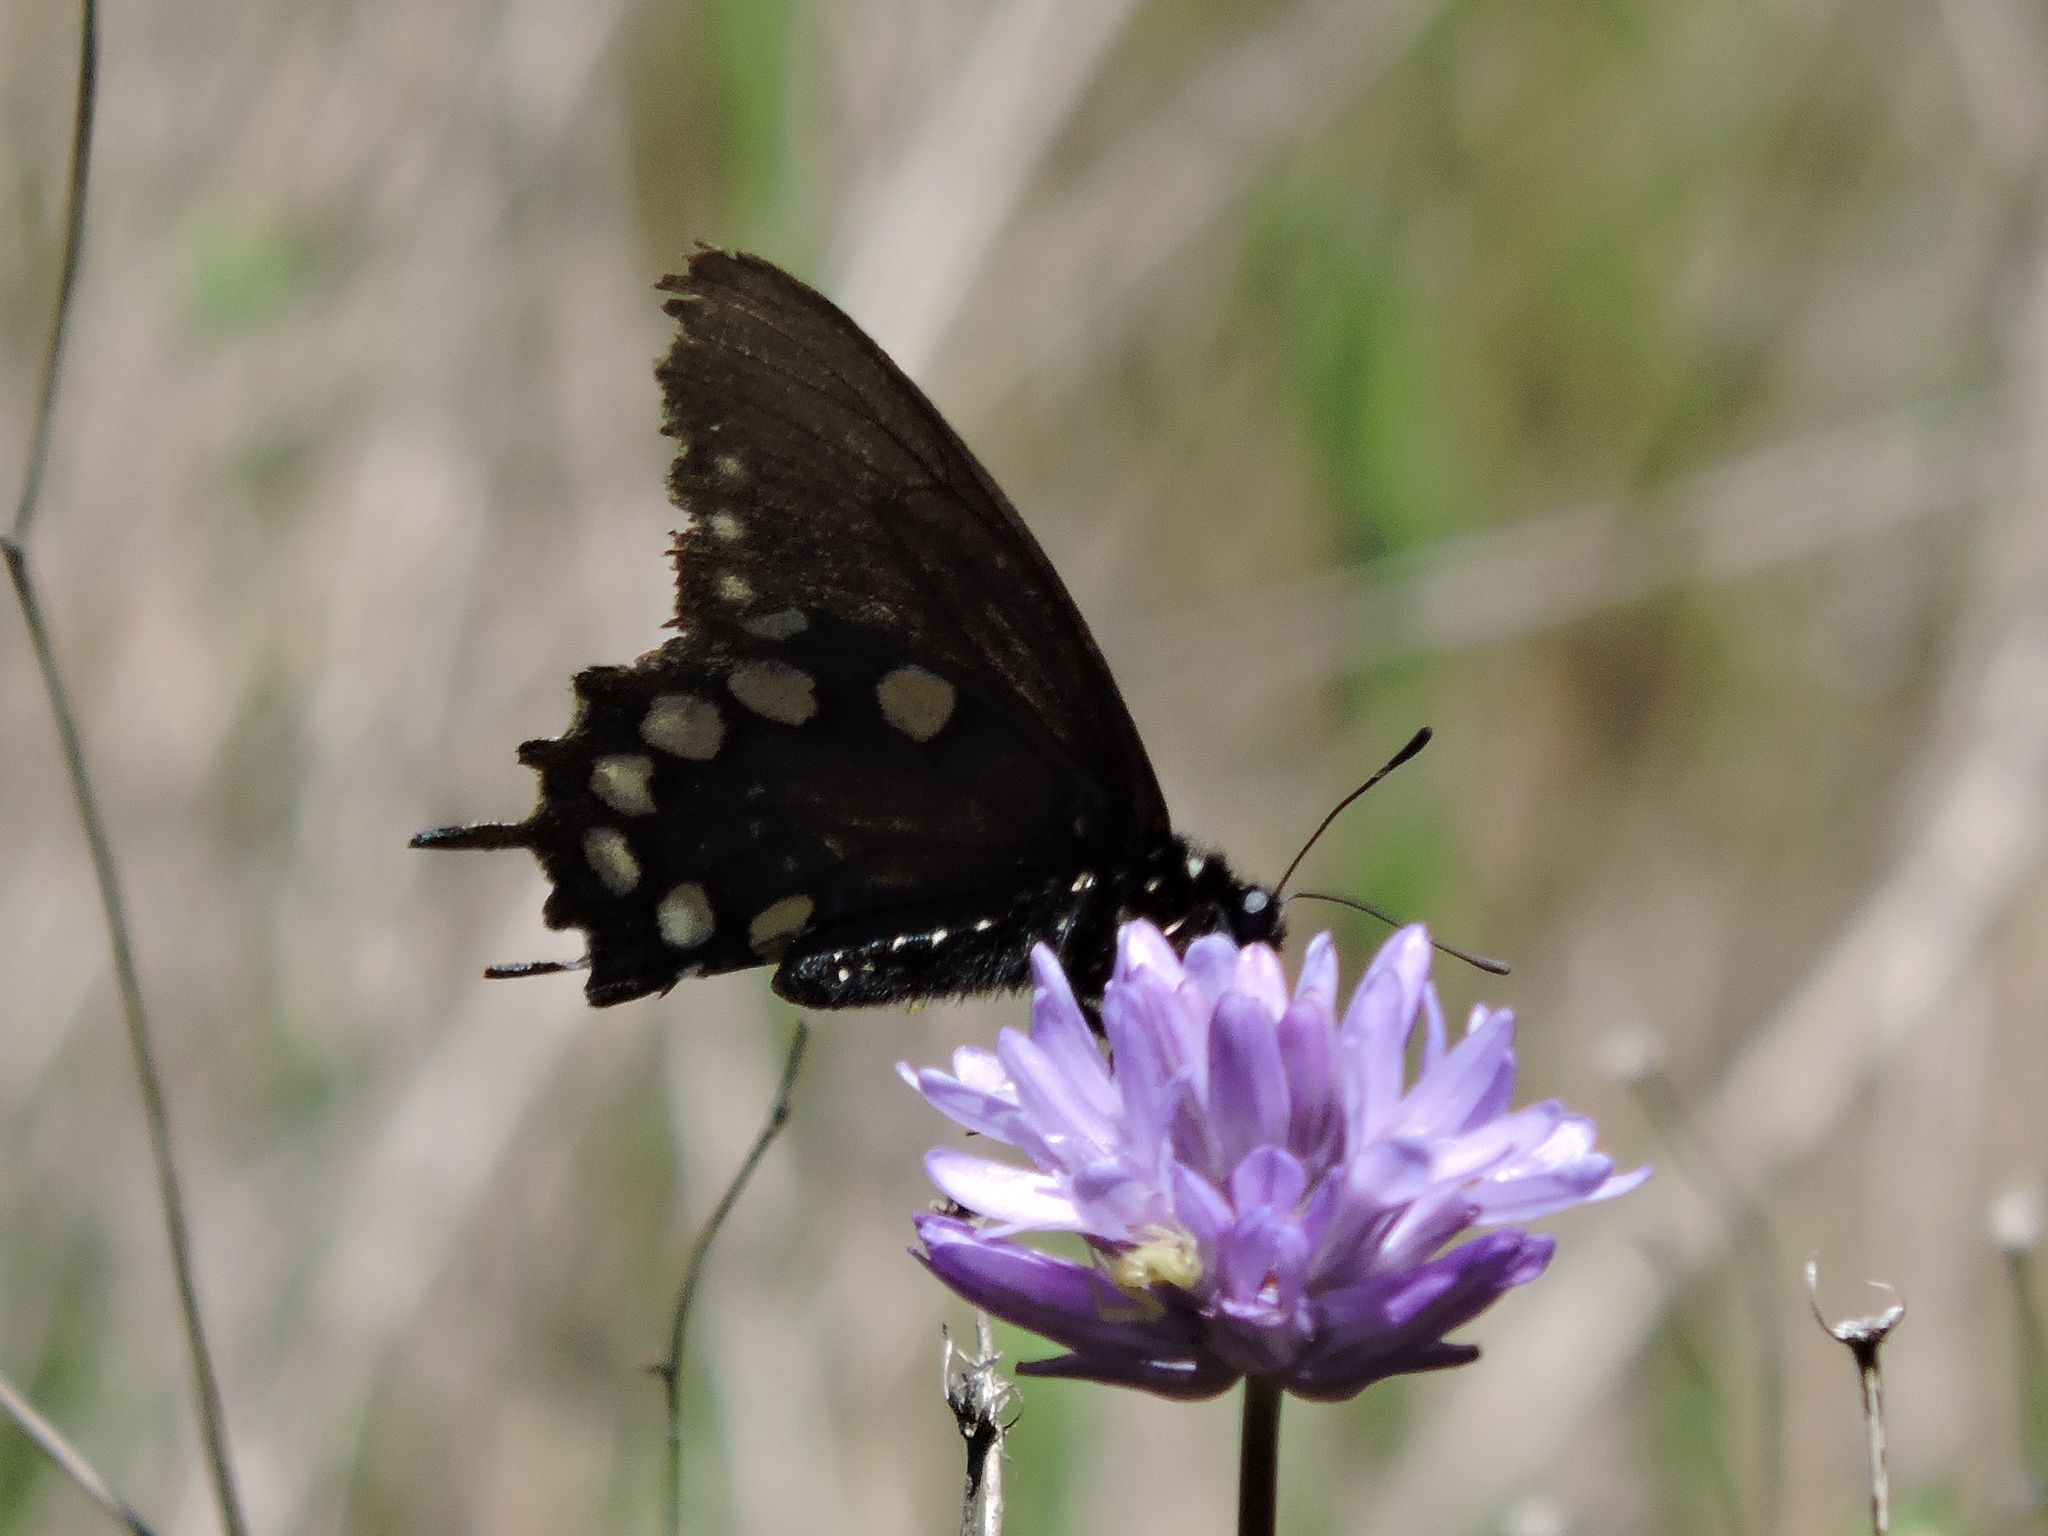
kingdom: Animalia
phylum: Arthropoda
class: Insecta
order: Lepidoptera
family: Papilionidae
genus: Battus
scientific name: Battus philenor
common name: Pipevine swallowtail
